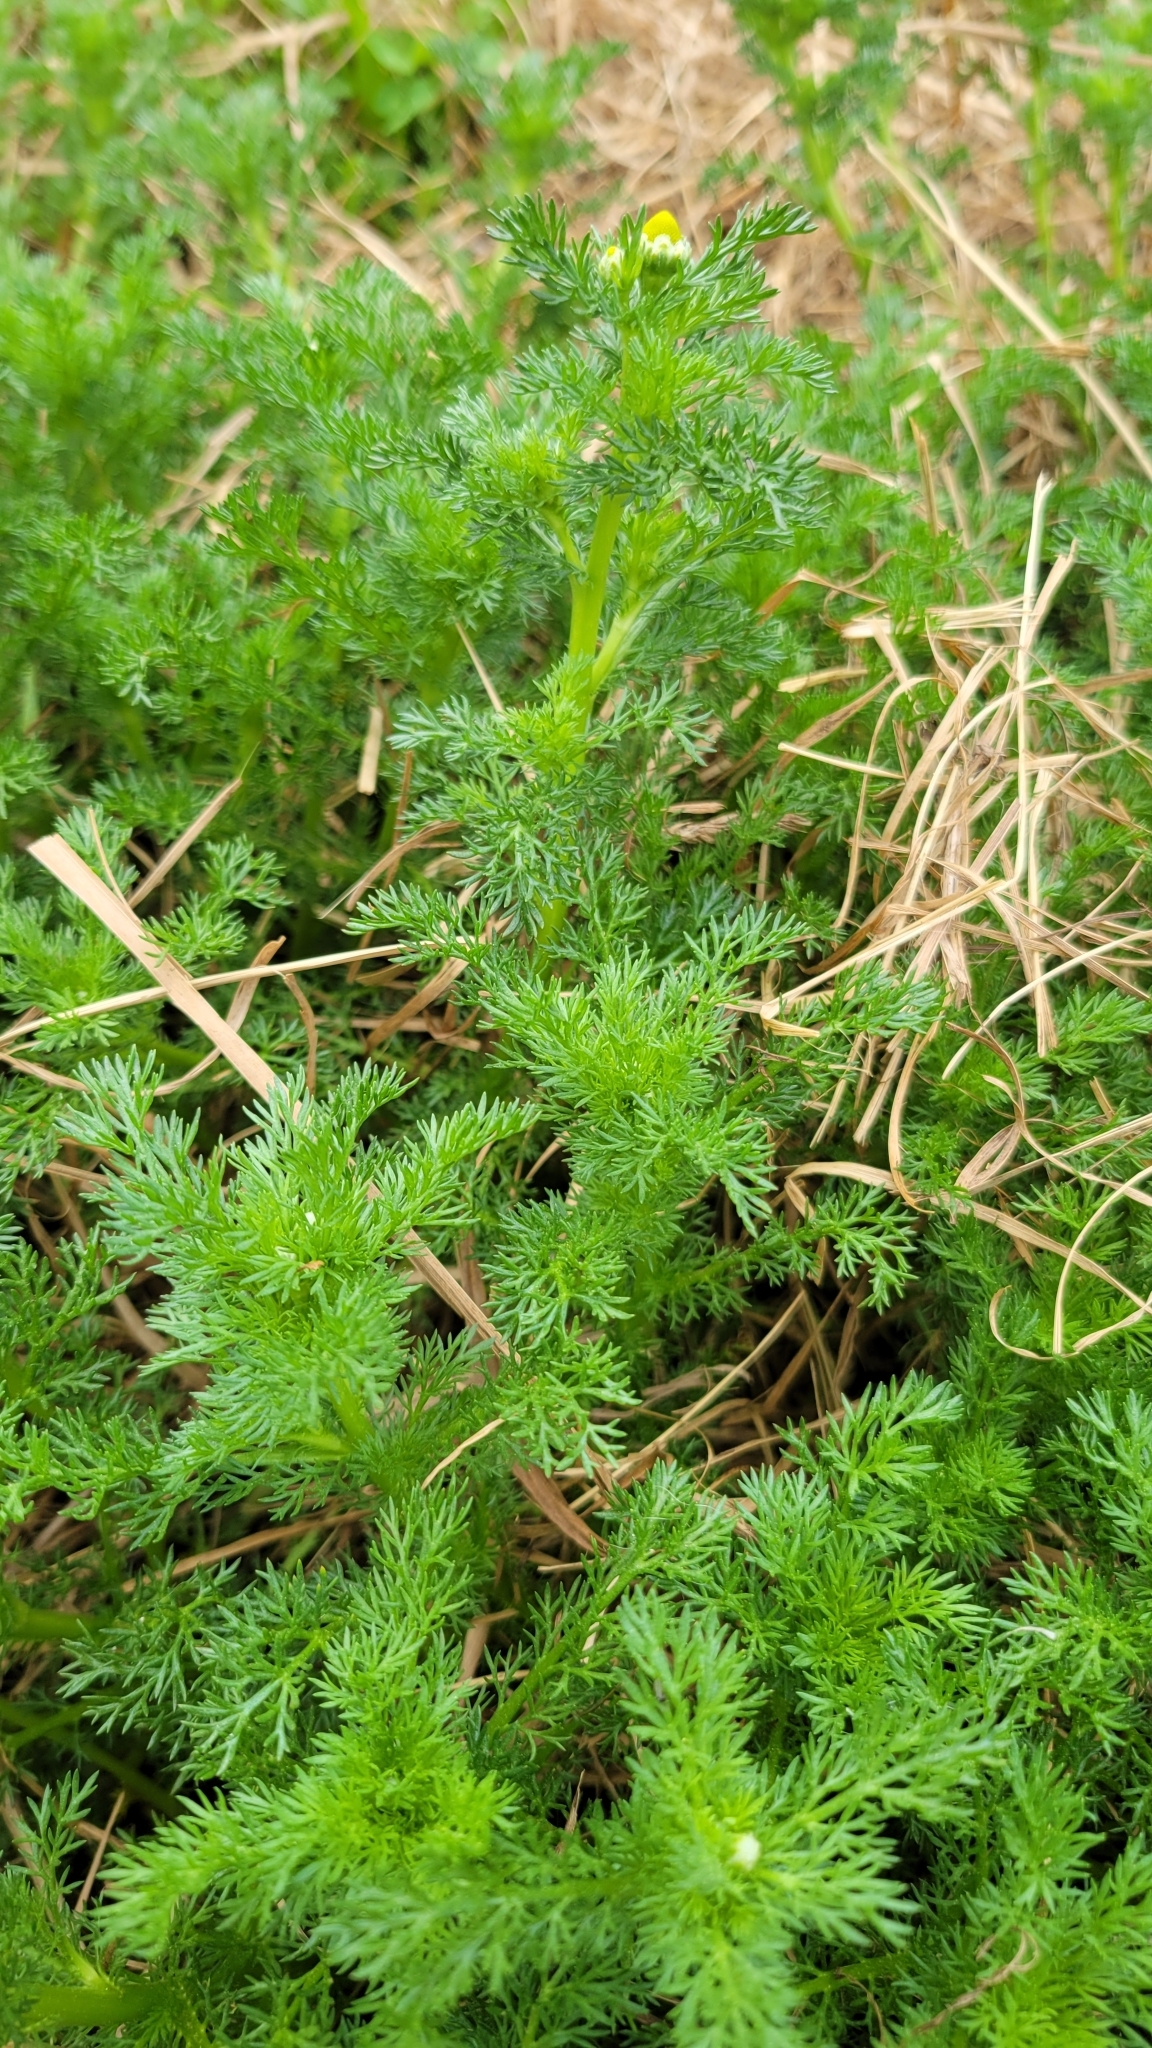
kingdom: Plantae
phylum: Tracheophyta
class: Magnoliopsida
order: Asterales
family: Asteraceae
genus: Matricaria
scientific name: Matricaria discoidea
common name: Disc mayweed
